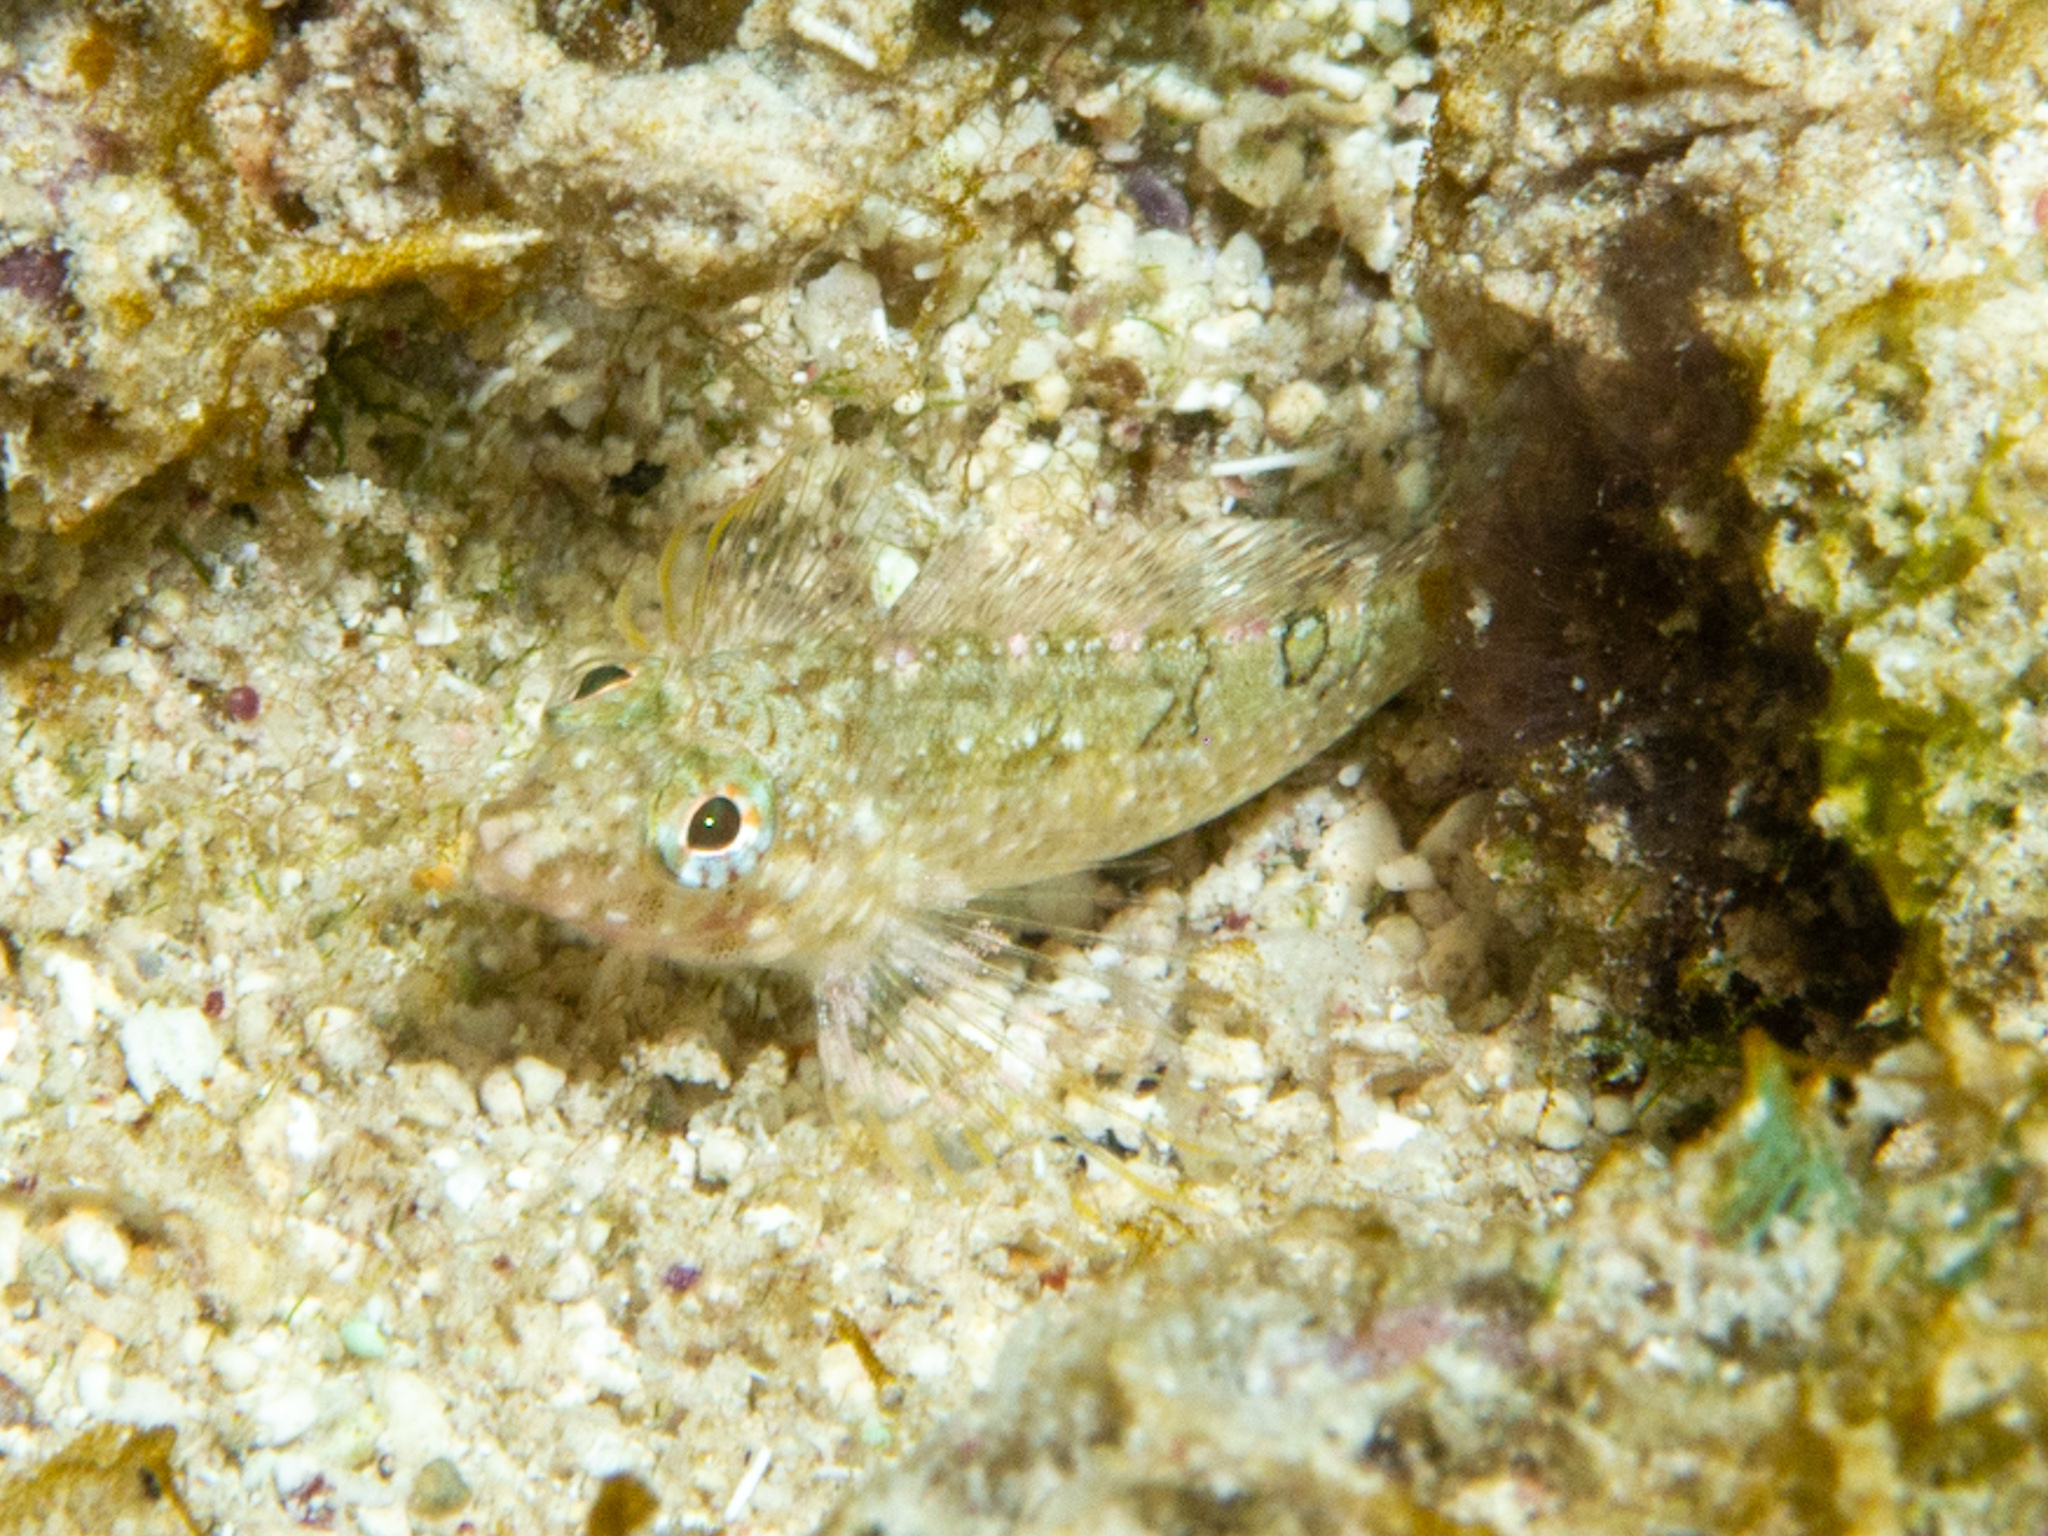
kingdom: Animalia
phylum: Chordata
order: Perciformes
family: Labrisomidae
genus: Malacoctenus
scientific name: Malacoctenus erdmani
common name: Imitator blenny
